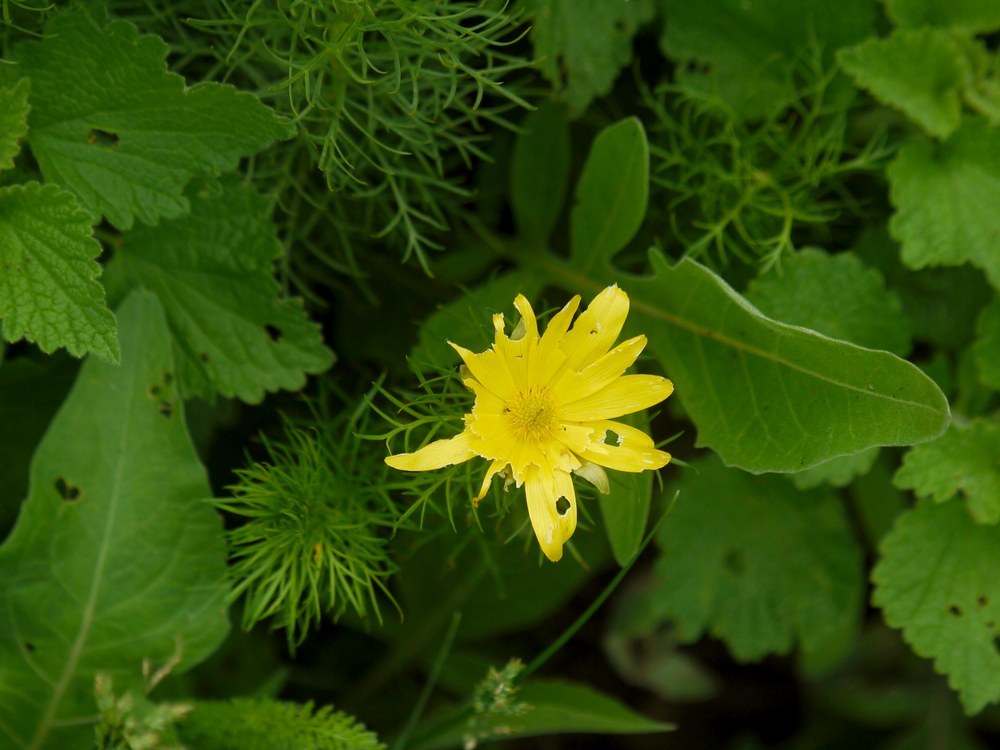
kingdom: Plantae
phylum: Tracheophyta
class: Magnoliopsida
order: Ranunculales
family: Ranunculaceae
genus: Adonis
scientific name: Adonis vernalis
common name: Yellow pheasants-eye
